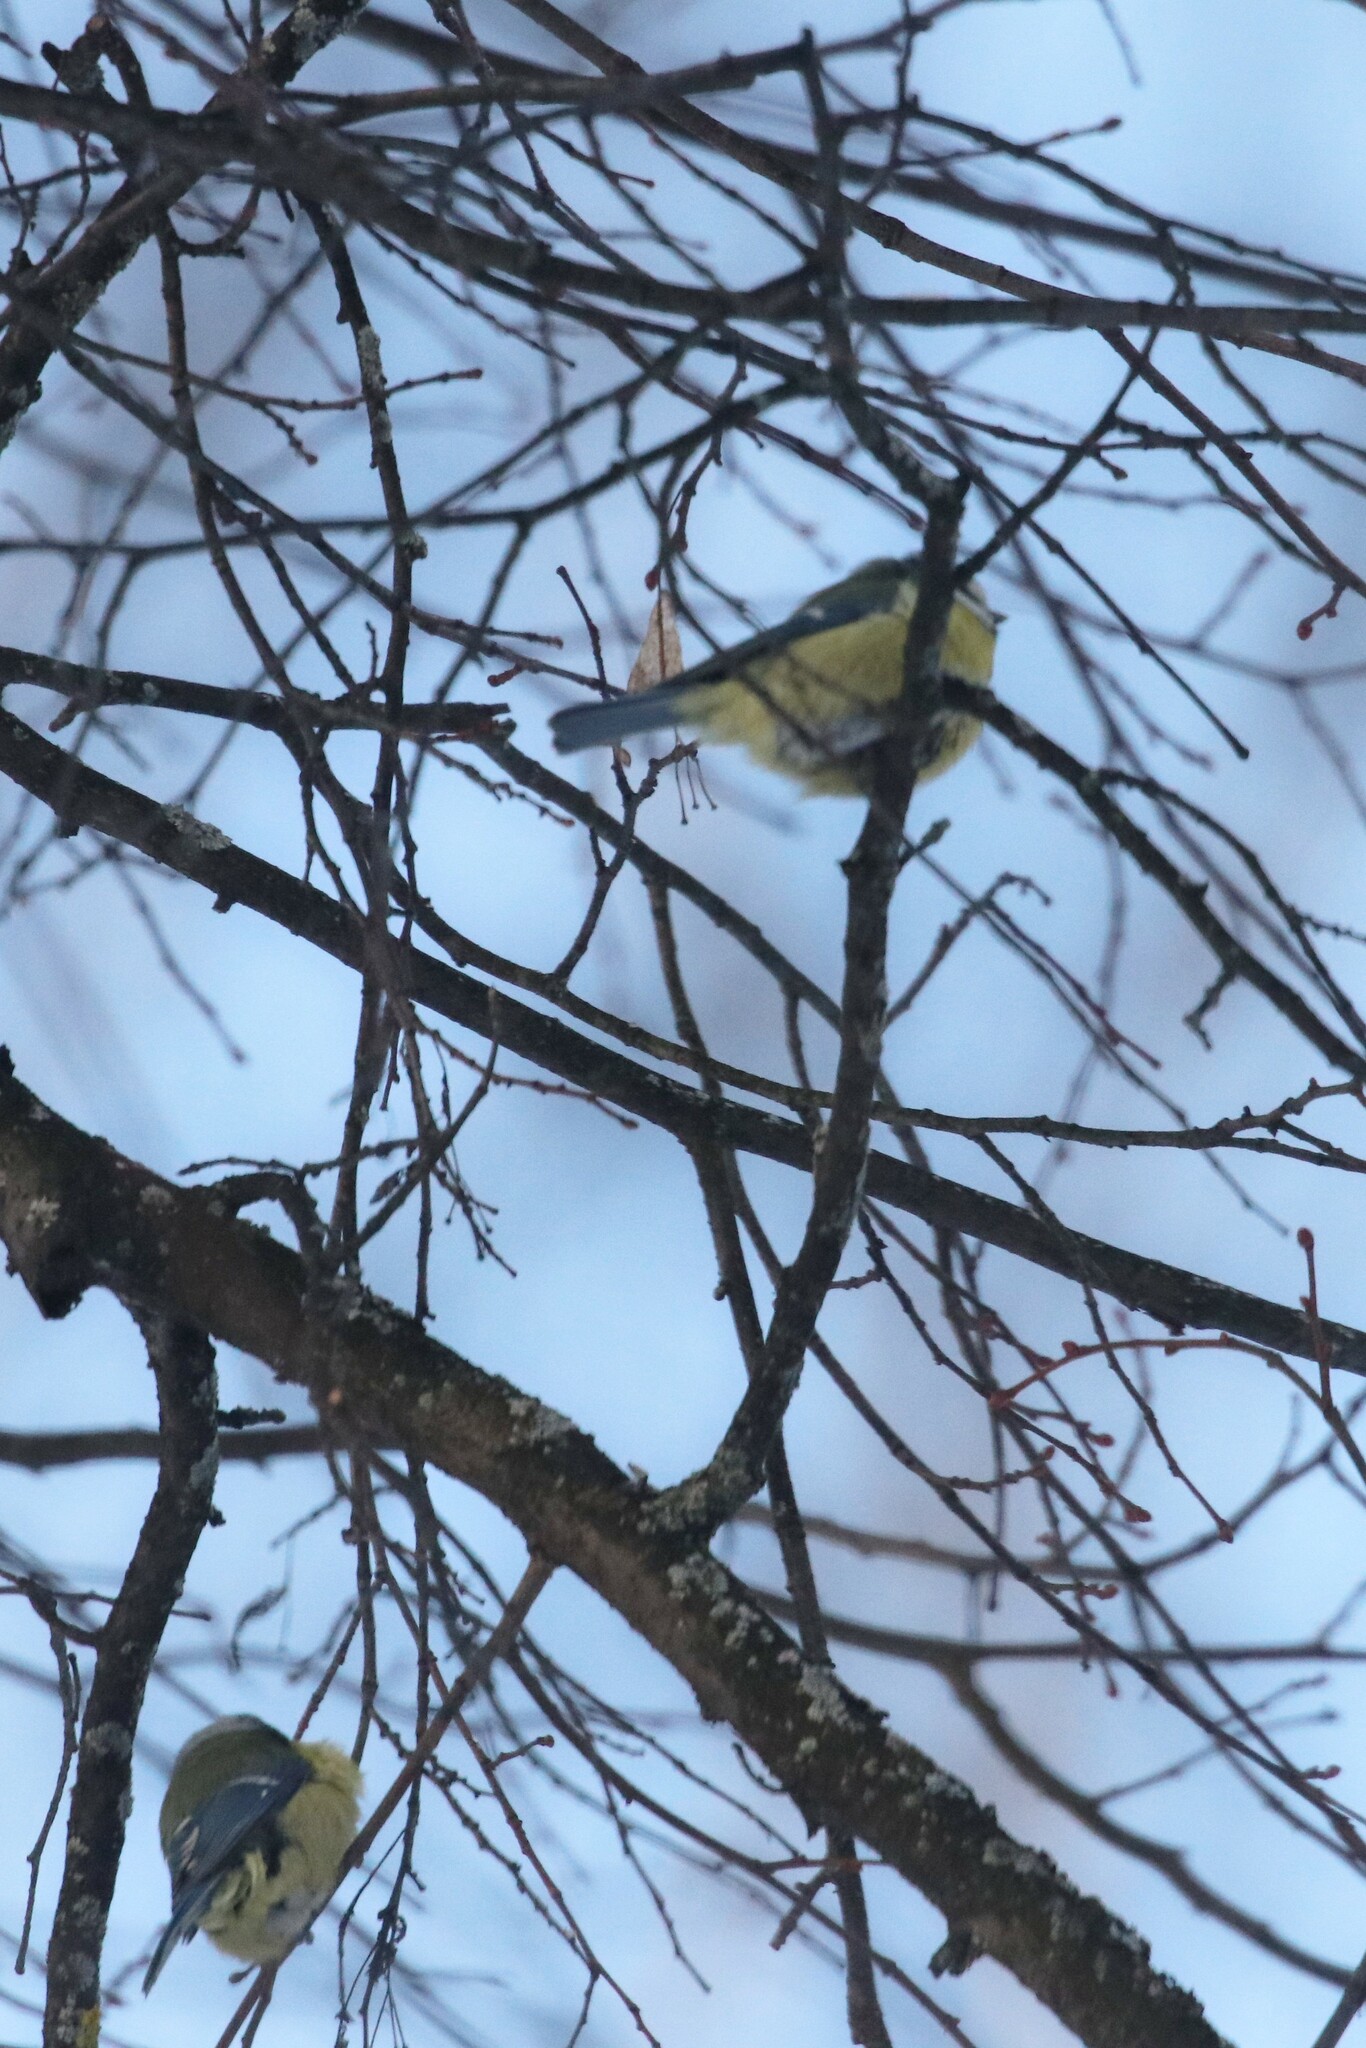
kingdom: Animalia
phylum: Chordata
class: Aves
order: Passeriformes
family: Paridae
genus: Cyanistes
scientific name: Cyanistes caeruleus
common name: Eurasian blue tit
